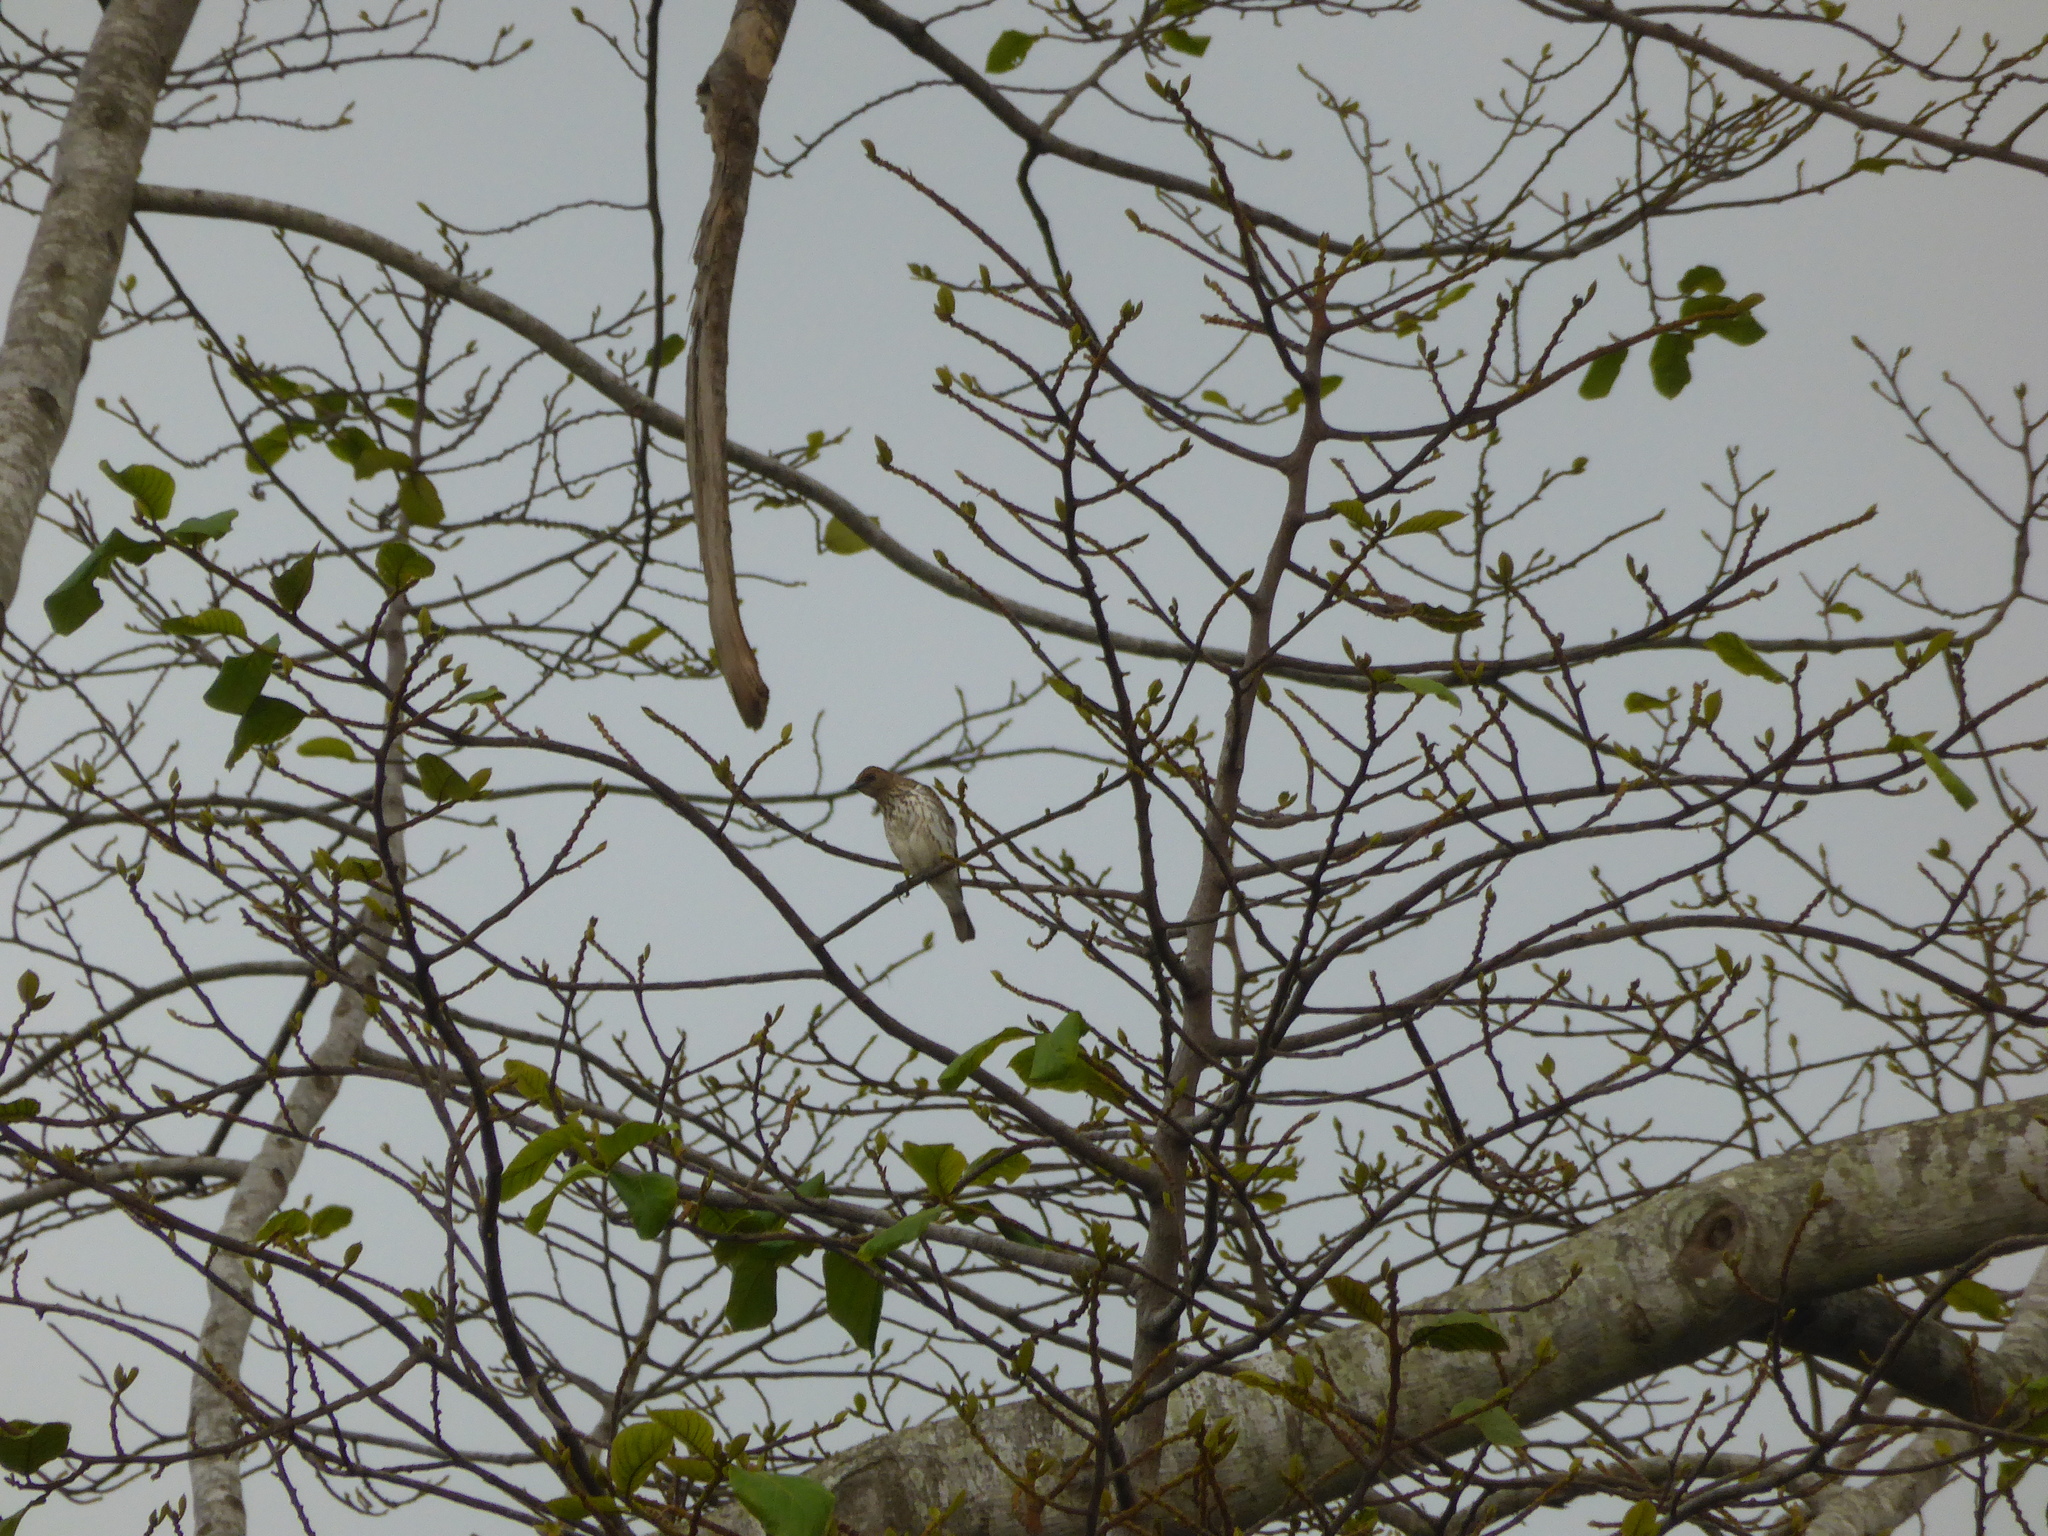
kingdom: Animalia
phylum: Chordata
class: Aves
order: Passeriformes
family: Sturnidae
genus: Cinnyricinclus
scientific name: Cinnyricinclus leucogaster
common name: Violet-backed starling
